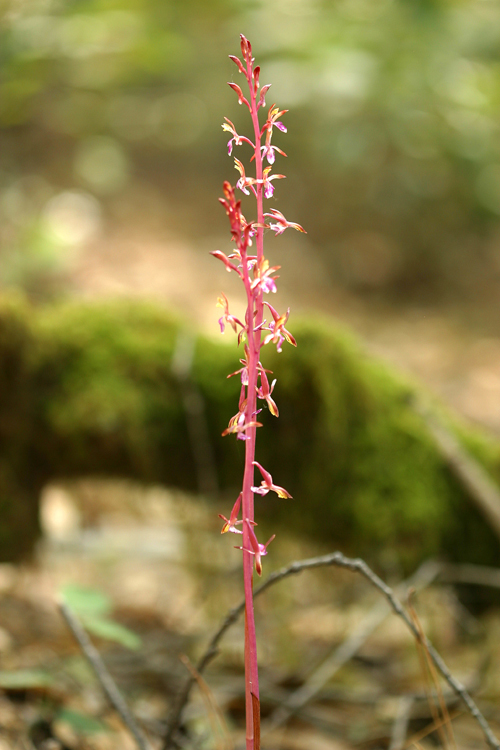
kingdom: Plantae
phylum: Tracheophyta
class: Liliopsida
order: Asparagales
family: Orchidaceae
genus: Corallorhiza
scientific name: Corallorhiza mertensiana
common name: Pacific coralroot
